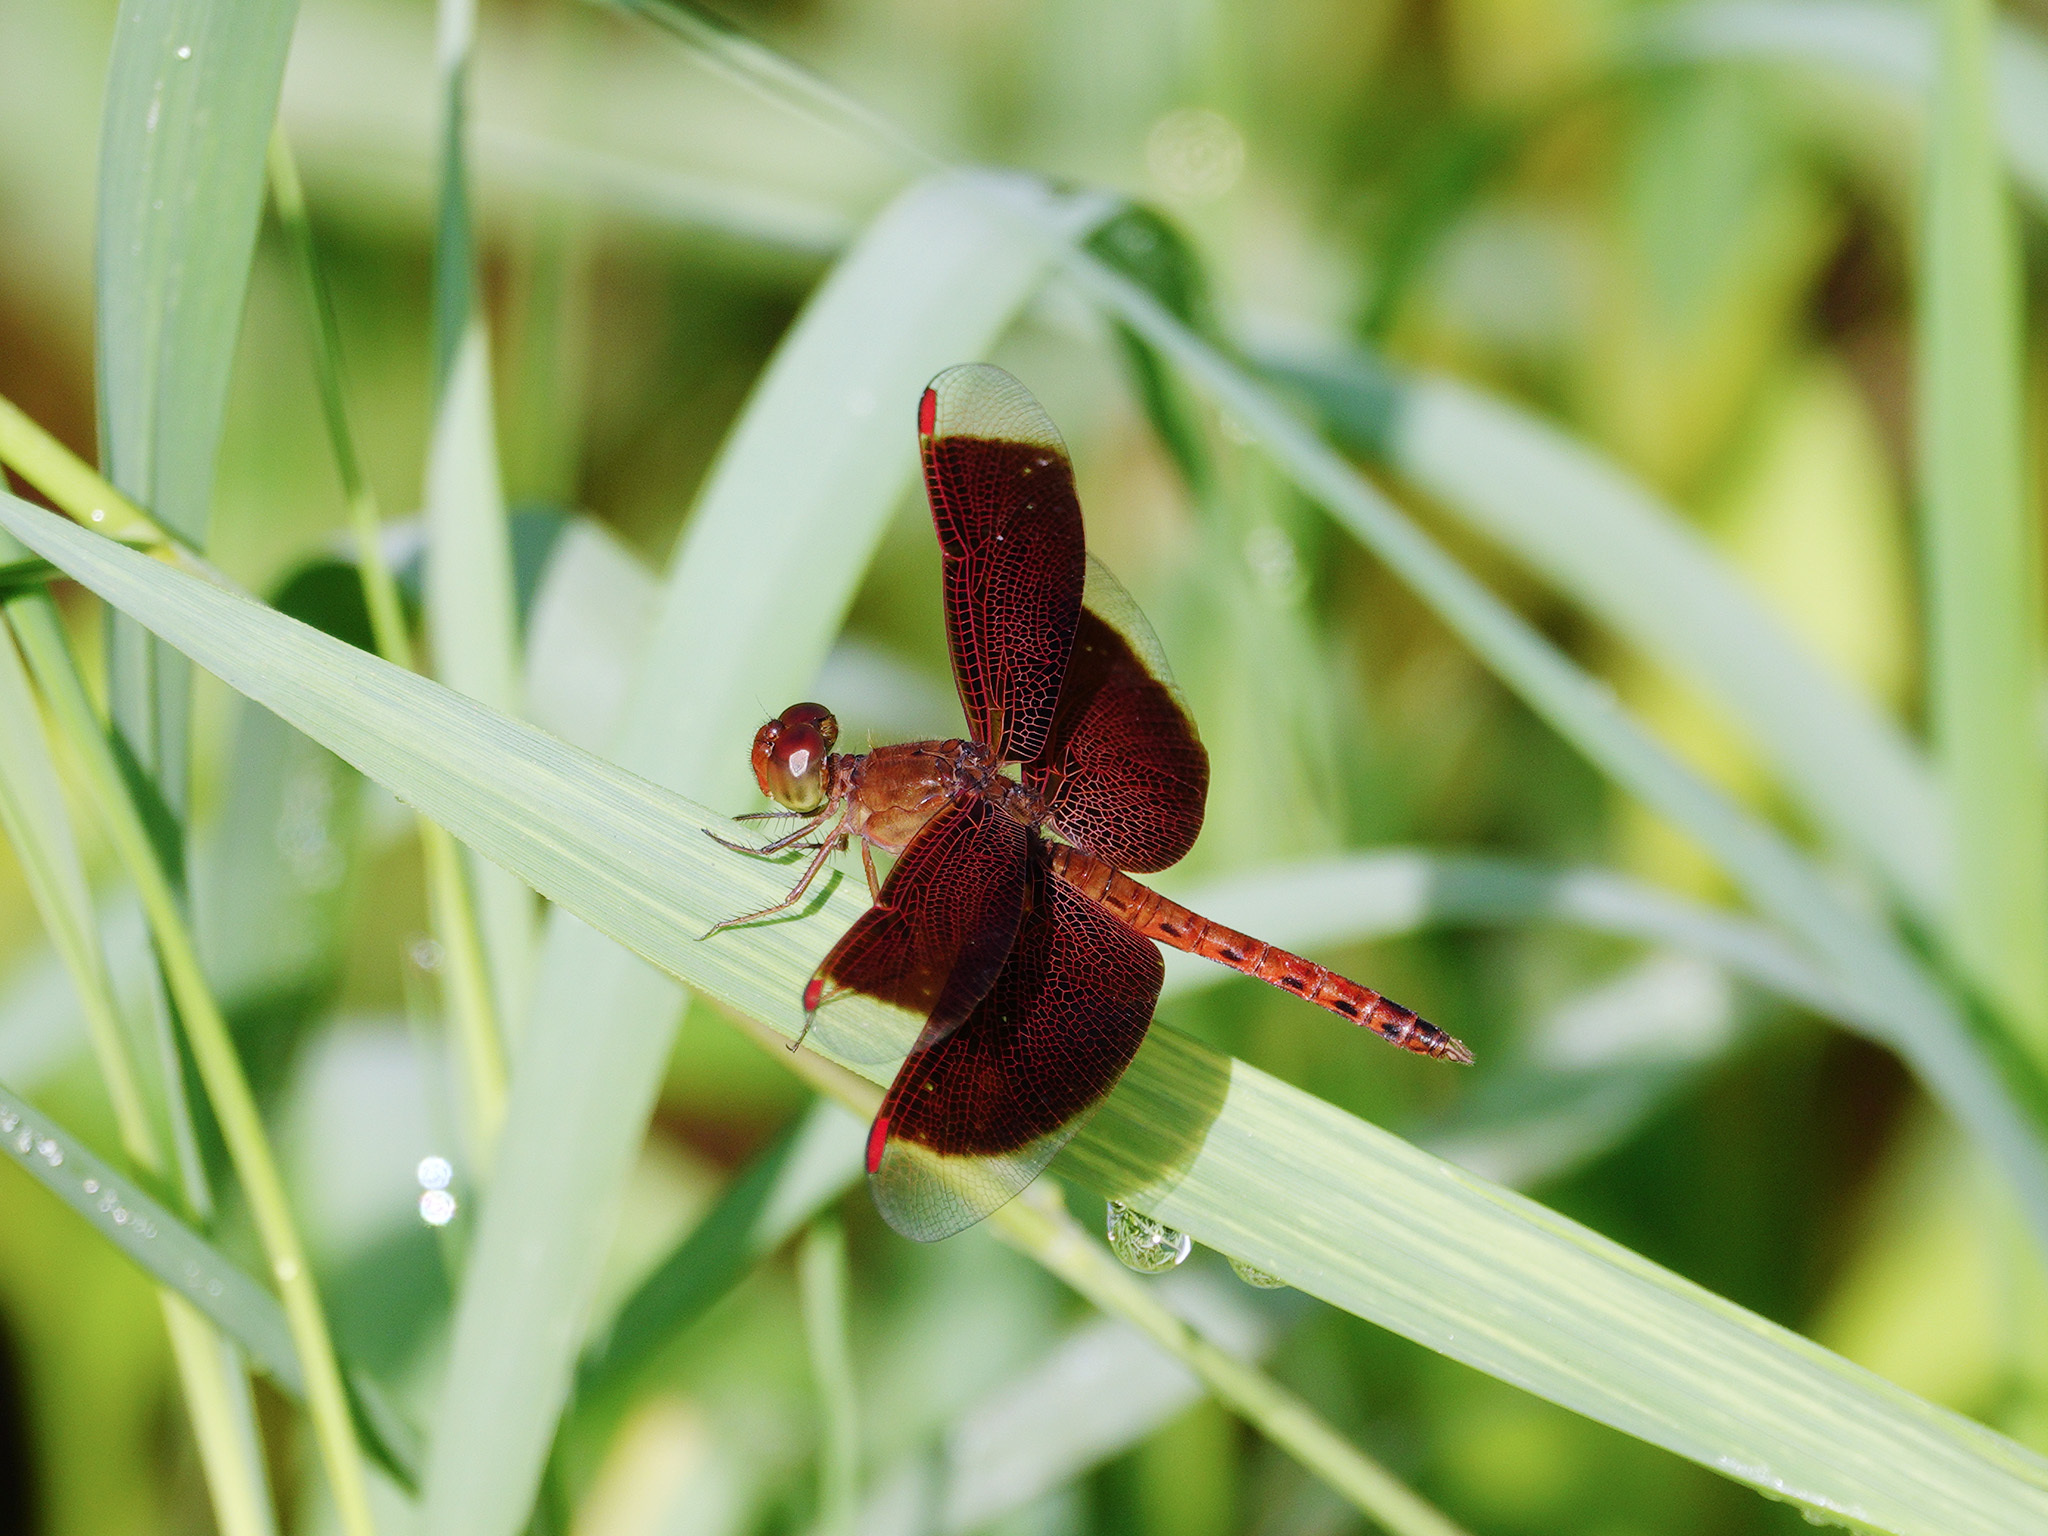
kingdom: Animalia
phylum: Arthropoda
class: Insecta
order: Odonata
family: Libellulidae
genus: Neurothemis
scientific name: Neurothemis fluctuans
